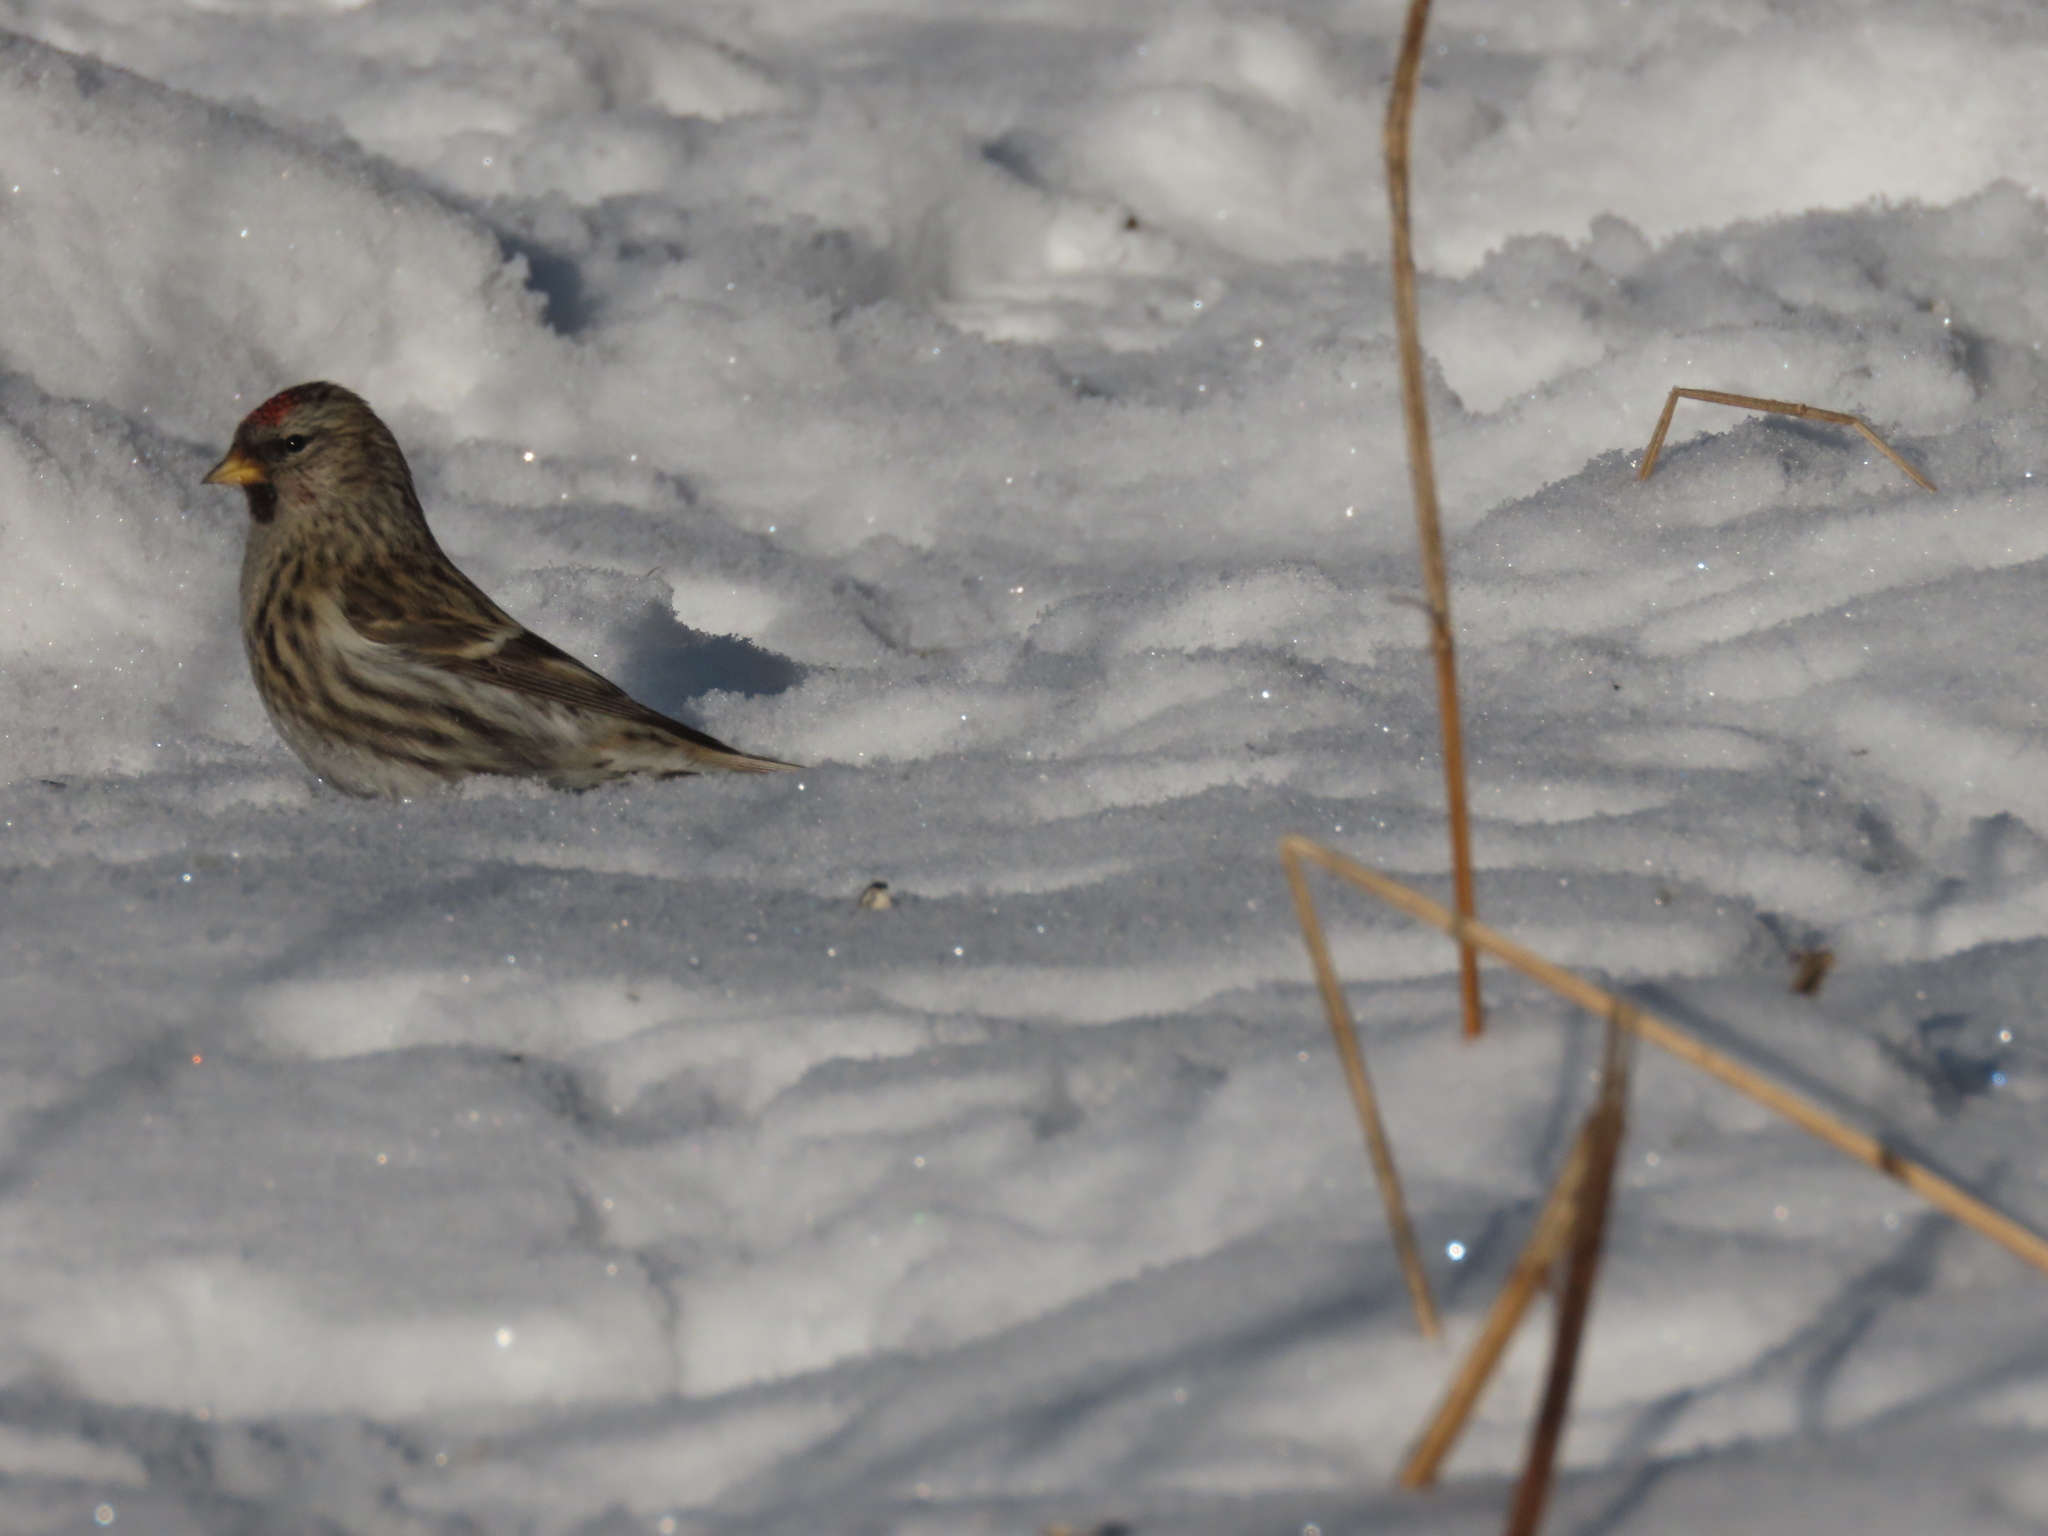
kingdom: Animalia
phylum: Chordata
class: Aves
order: Passeriformes
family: Fringillidae
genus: Acanthis
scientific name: Acanthis flammea
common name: Common redpoll
